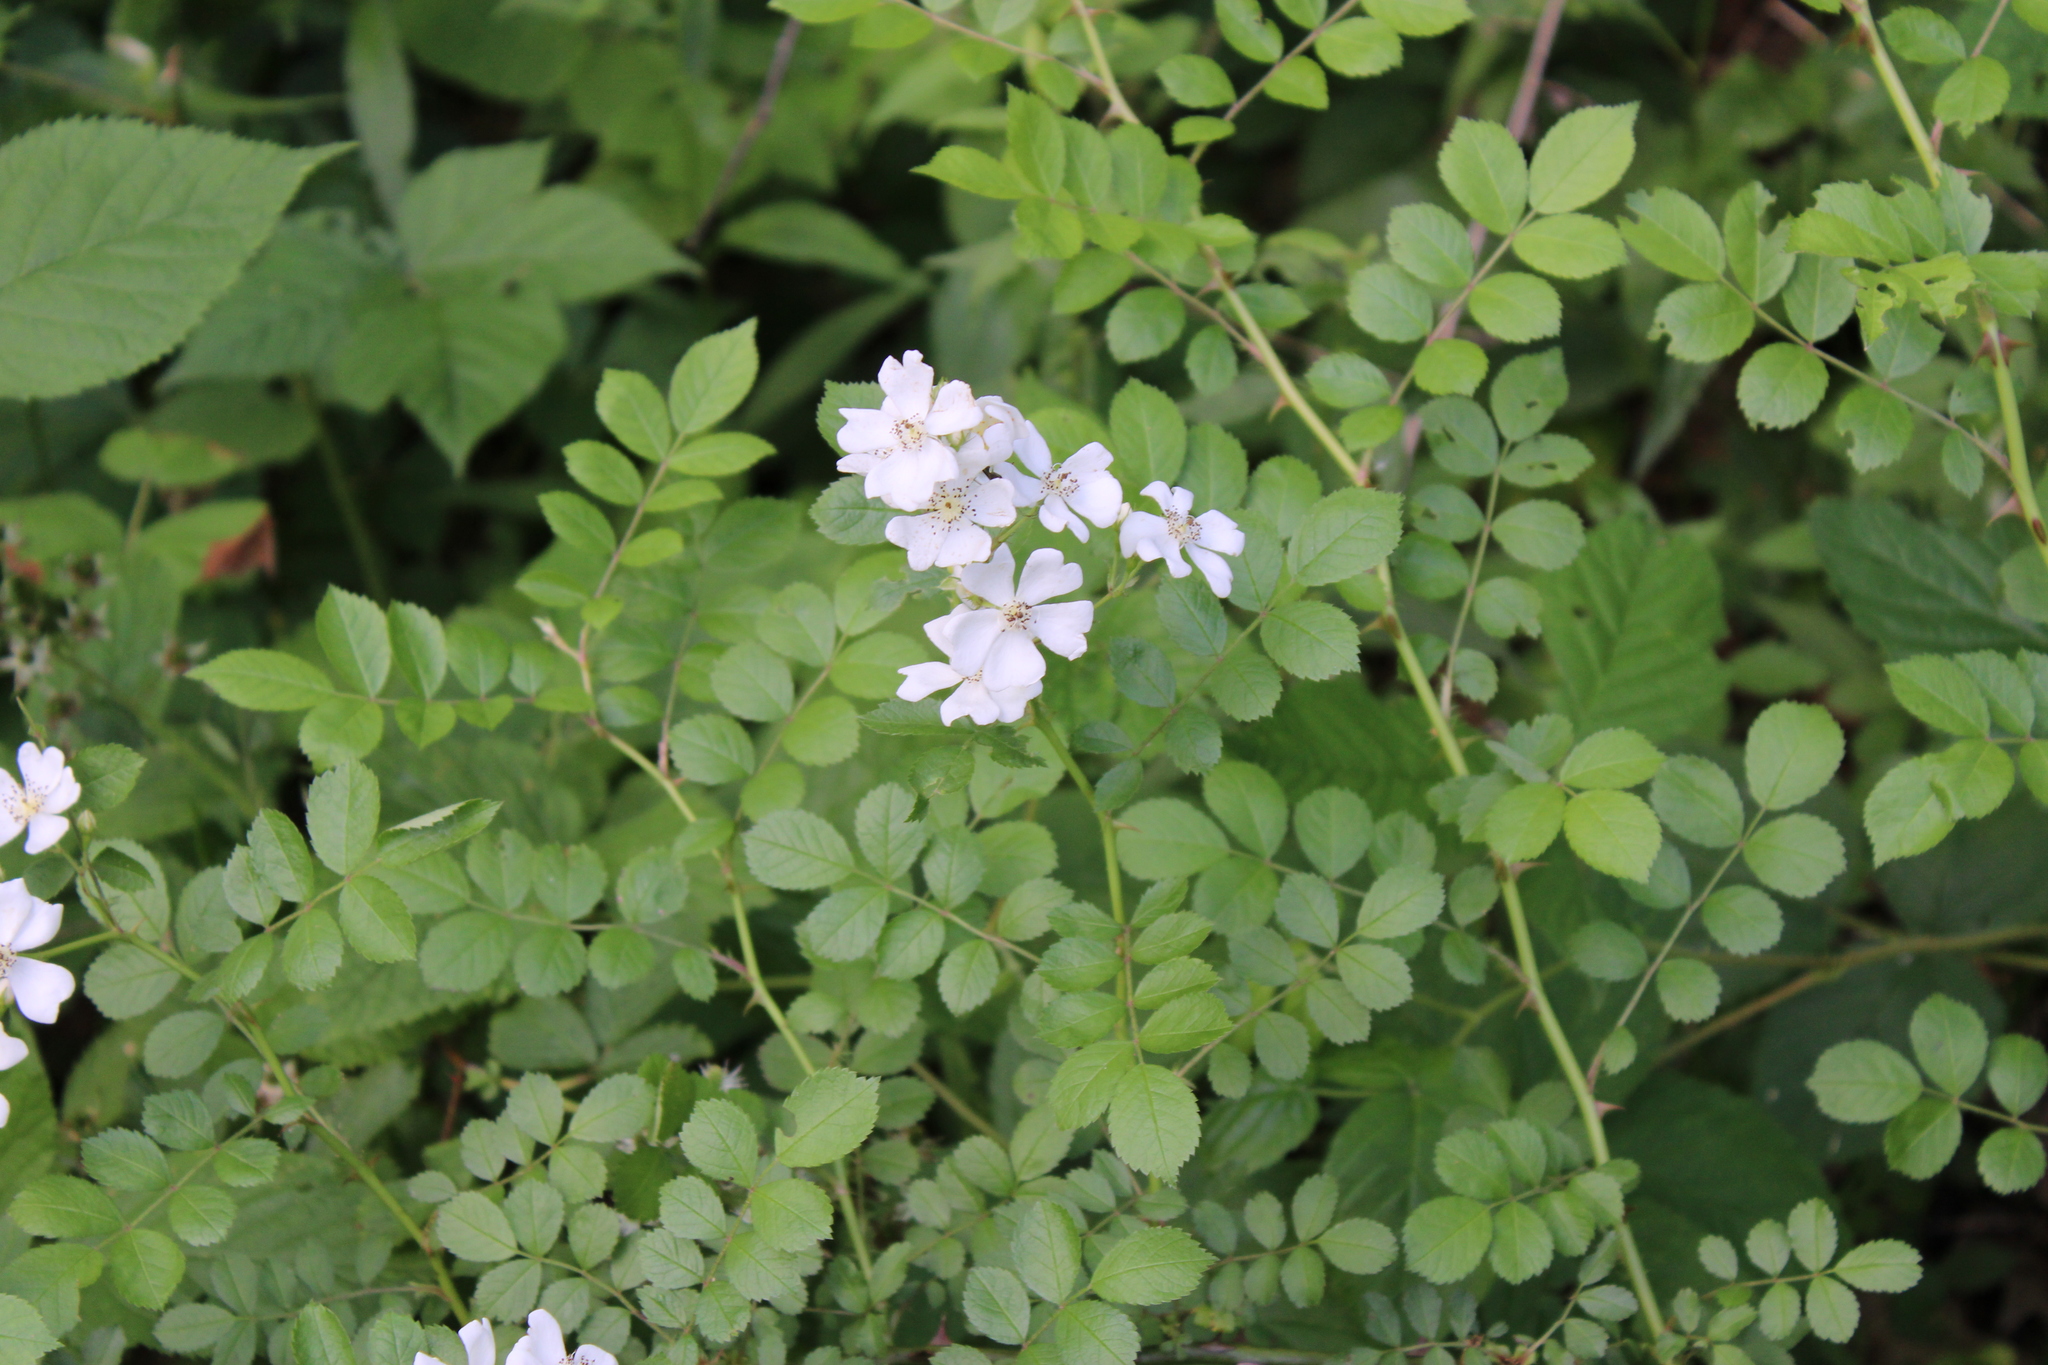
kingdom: Plantae
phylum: Tracheophyta
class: Magnoliopsida
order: Rosales
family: Rosaceae
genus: Rosa
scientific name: Rosa multiflora
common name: Multiflora rose
